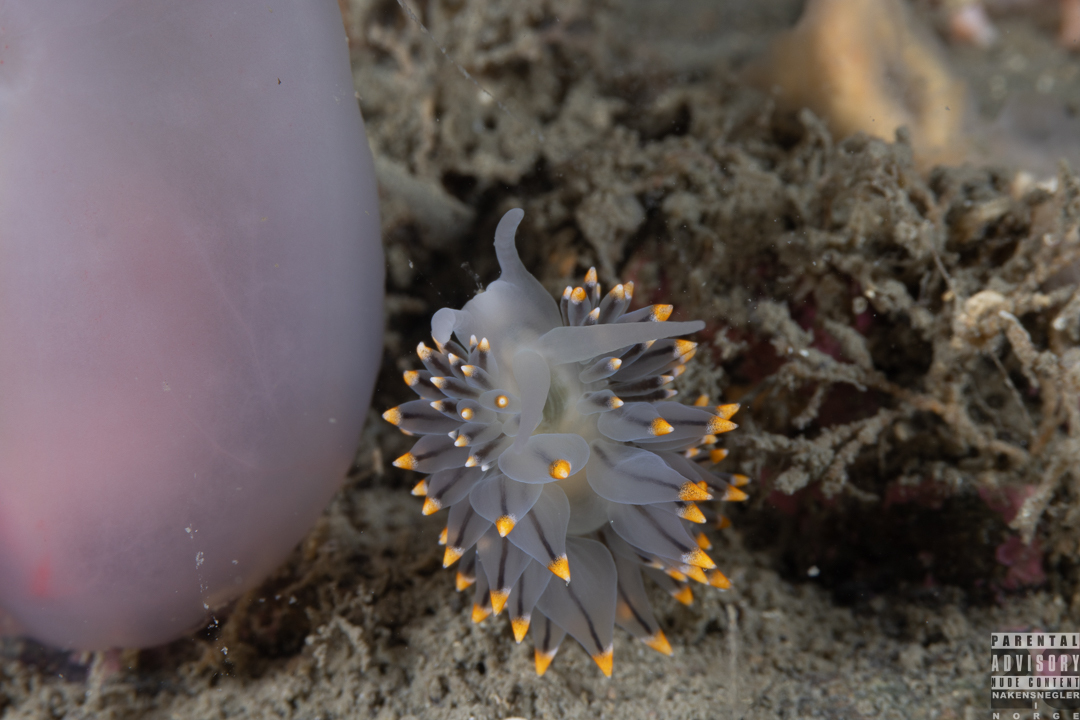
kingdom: Animalia
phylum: Mollusca
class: Gastropoda
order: Nudibranchia
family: Eubranchidae
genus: Eubranchus
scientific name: Eubranchus tricolor
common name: Painted balloon aeolis
